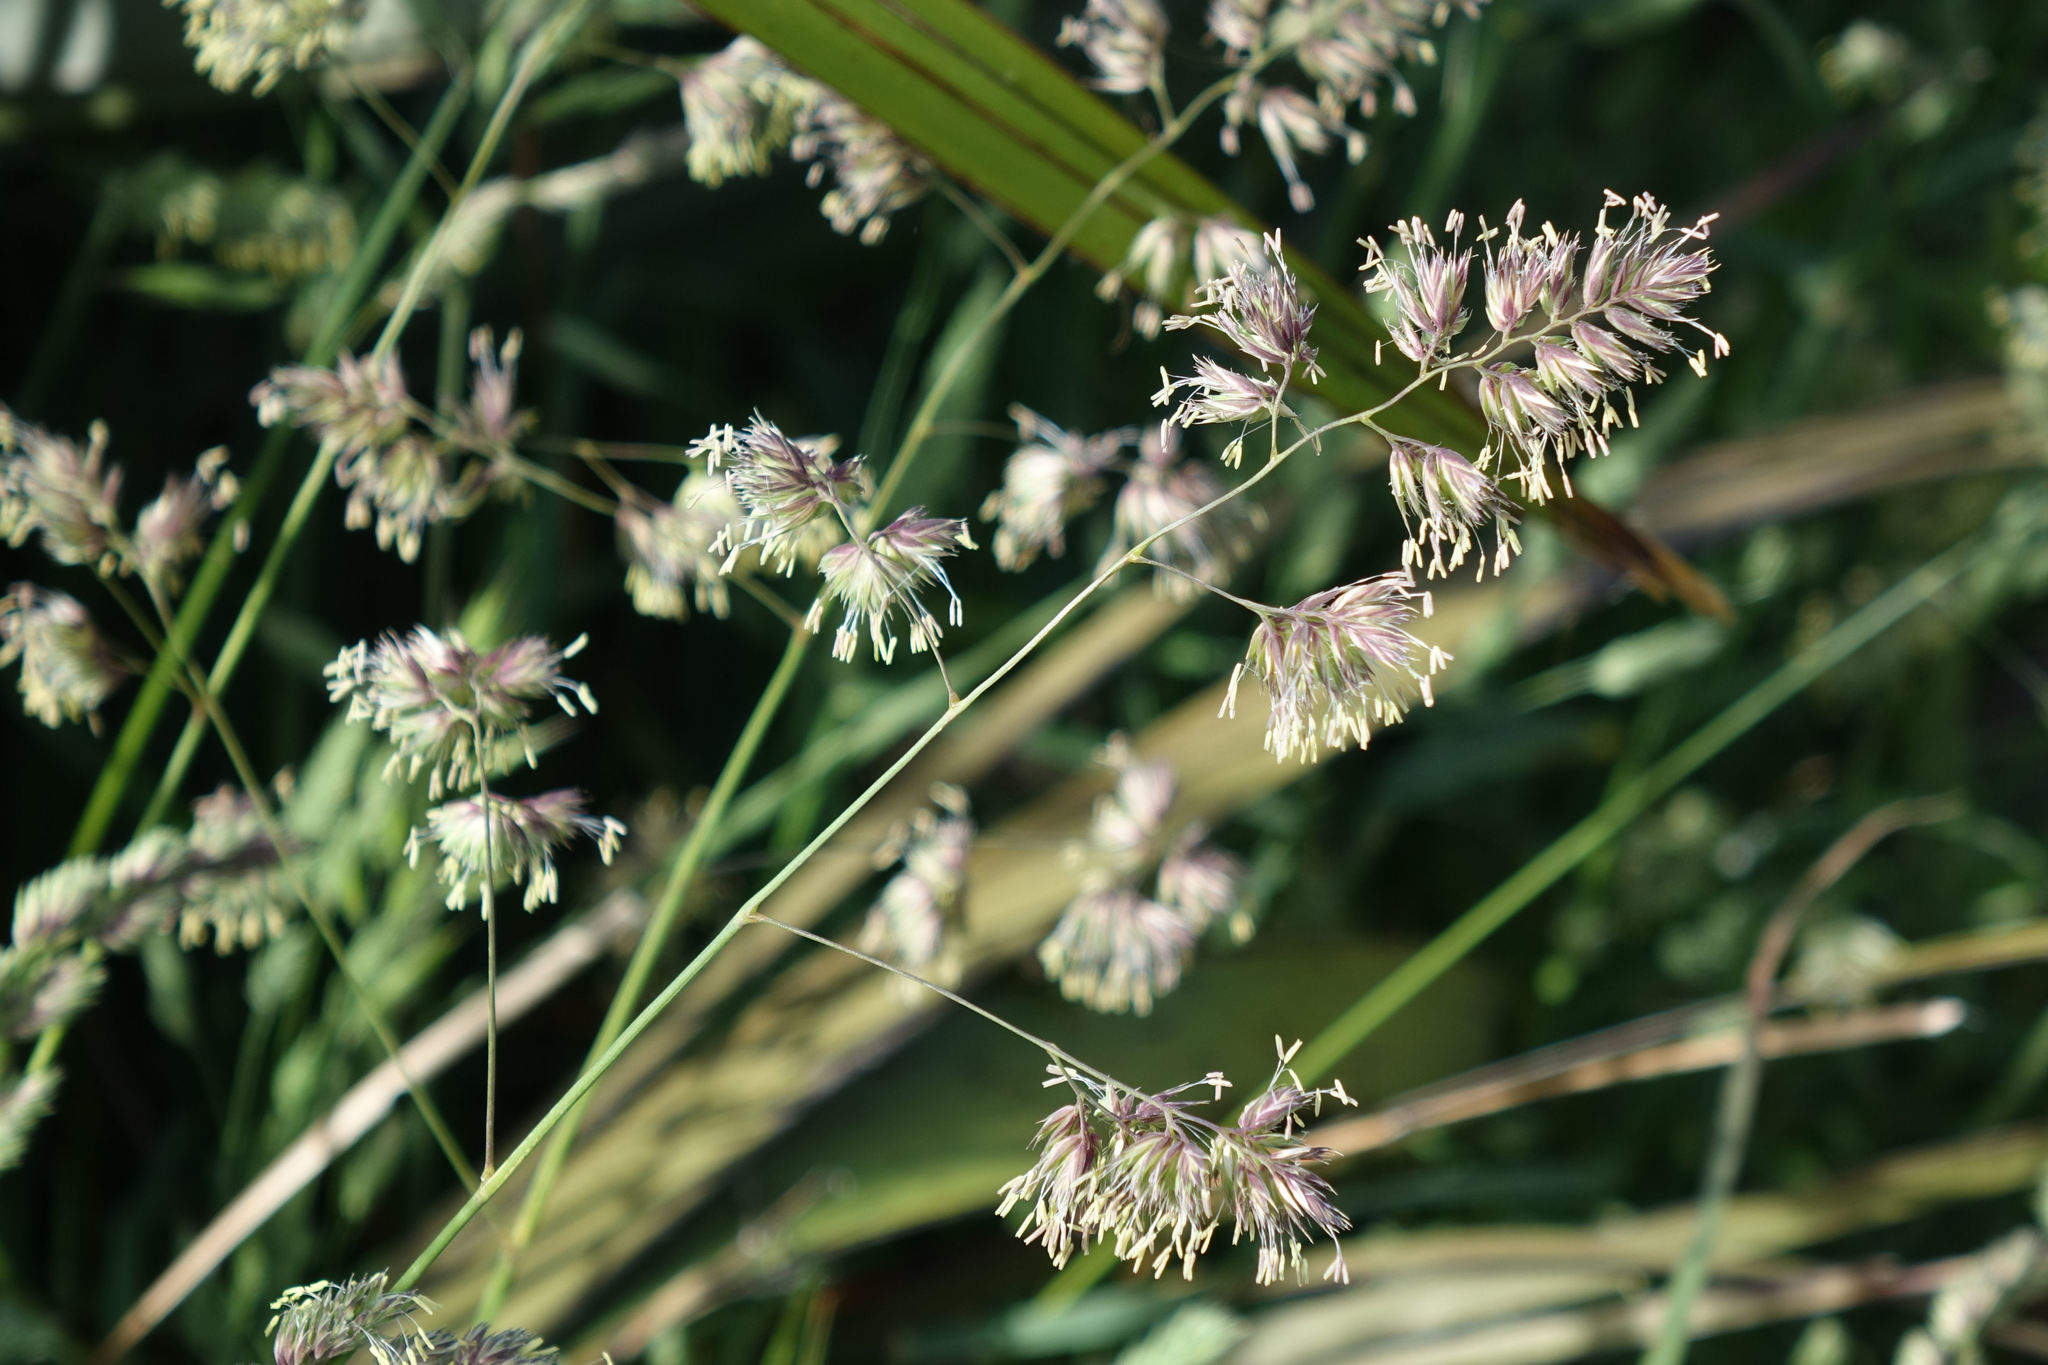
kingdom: Plantae
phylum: Tracheophyta
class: Liliopsida
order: Poales
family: Poaceae
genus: Dactylis
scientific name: Dactylis glomerata
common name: Orchardgrass
